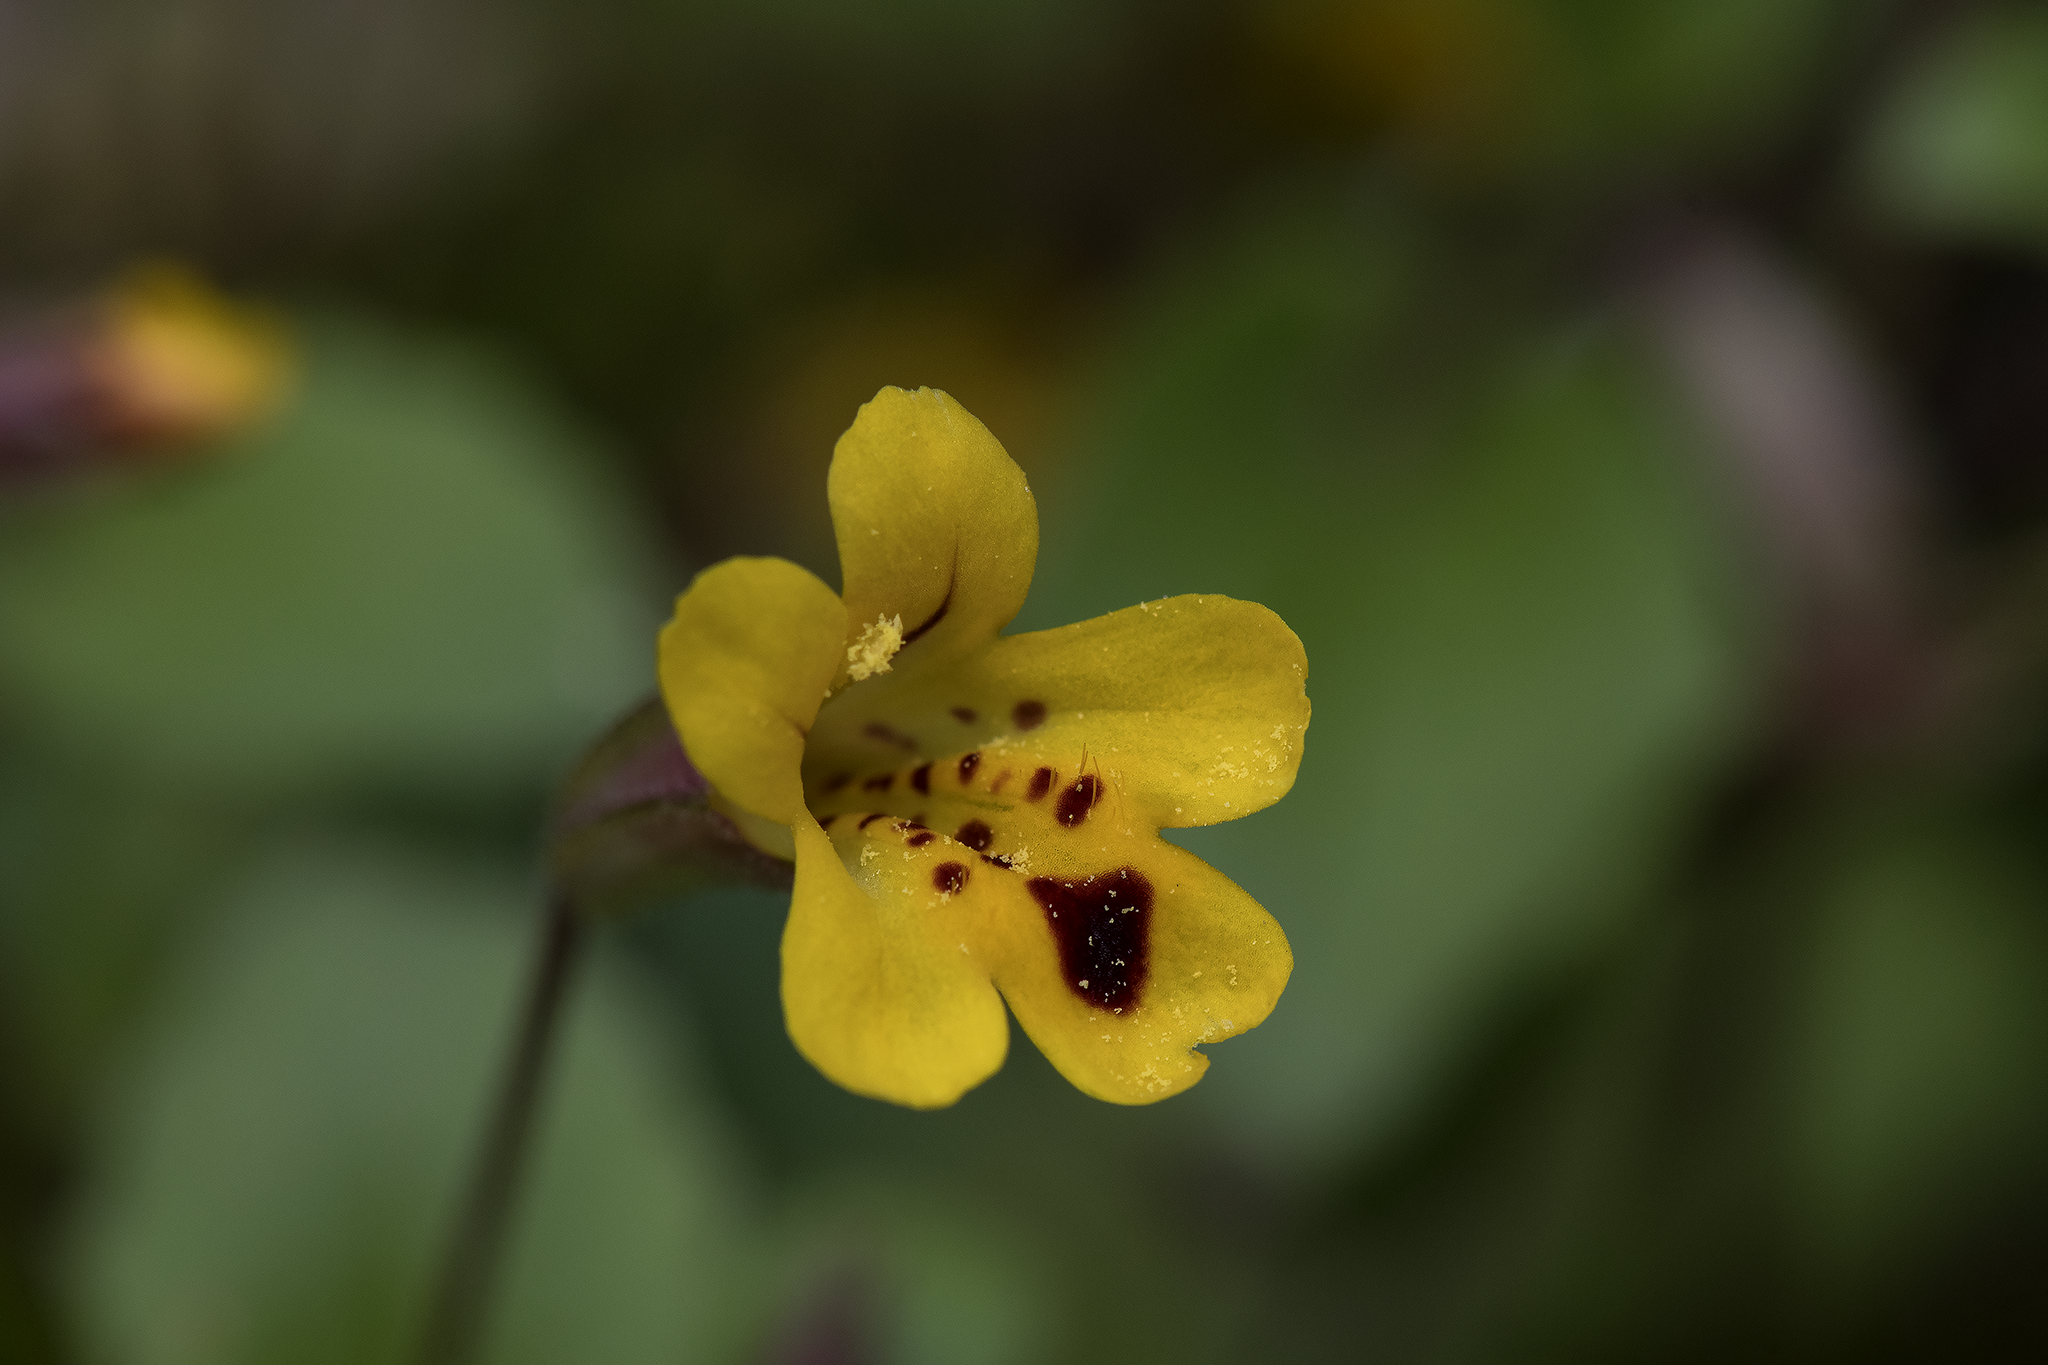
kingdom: Plantae
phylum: Tracheophyta
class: Magnoliopsida
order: Lamiales
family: Phrymaceae
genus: Erythranthe
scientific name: Erythranthe alsinoides
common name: Chickweed monkeyflower
